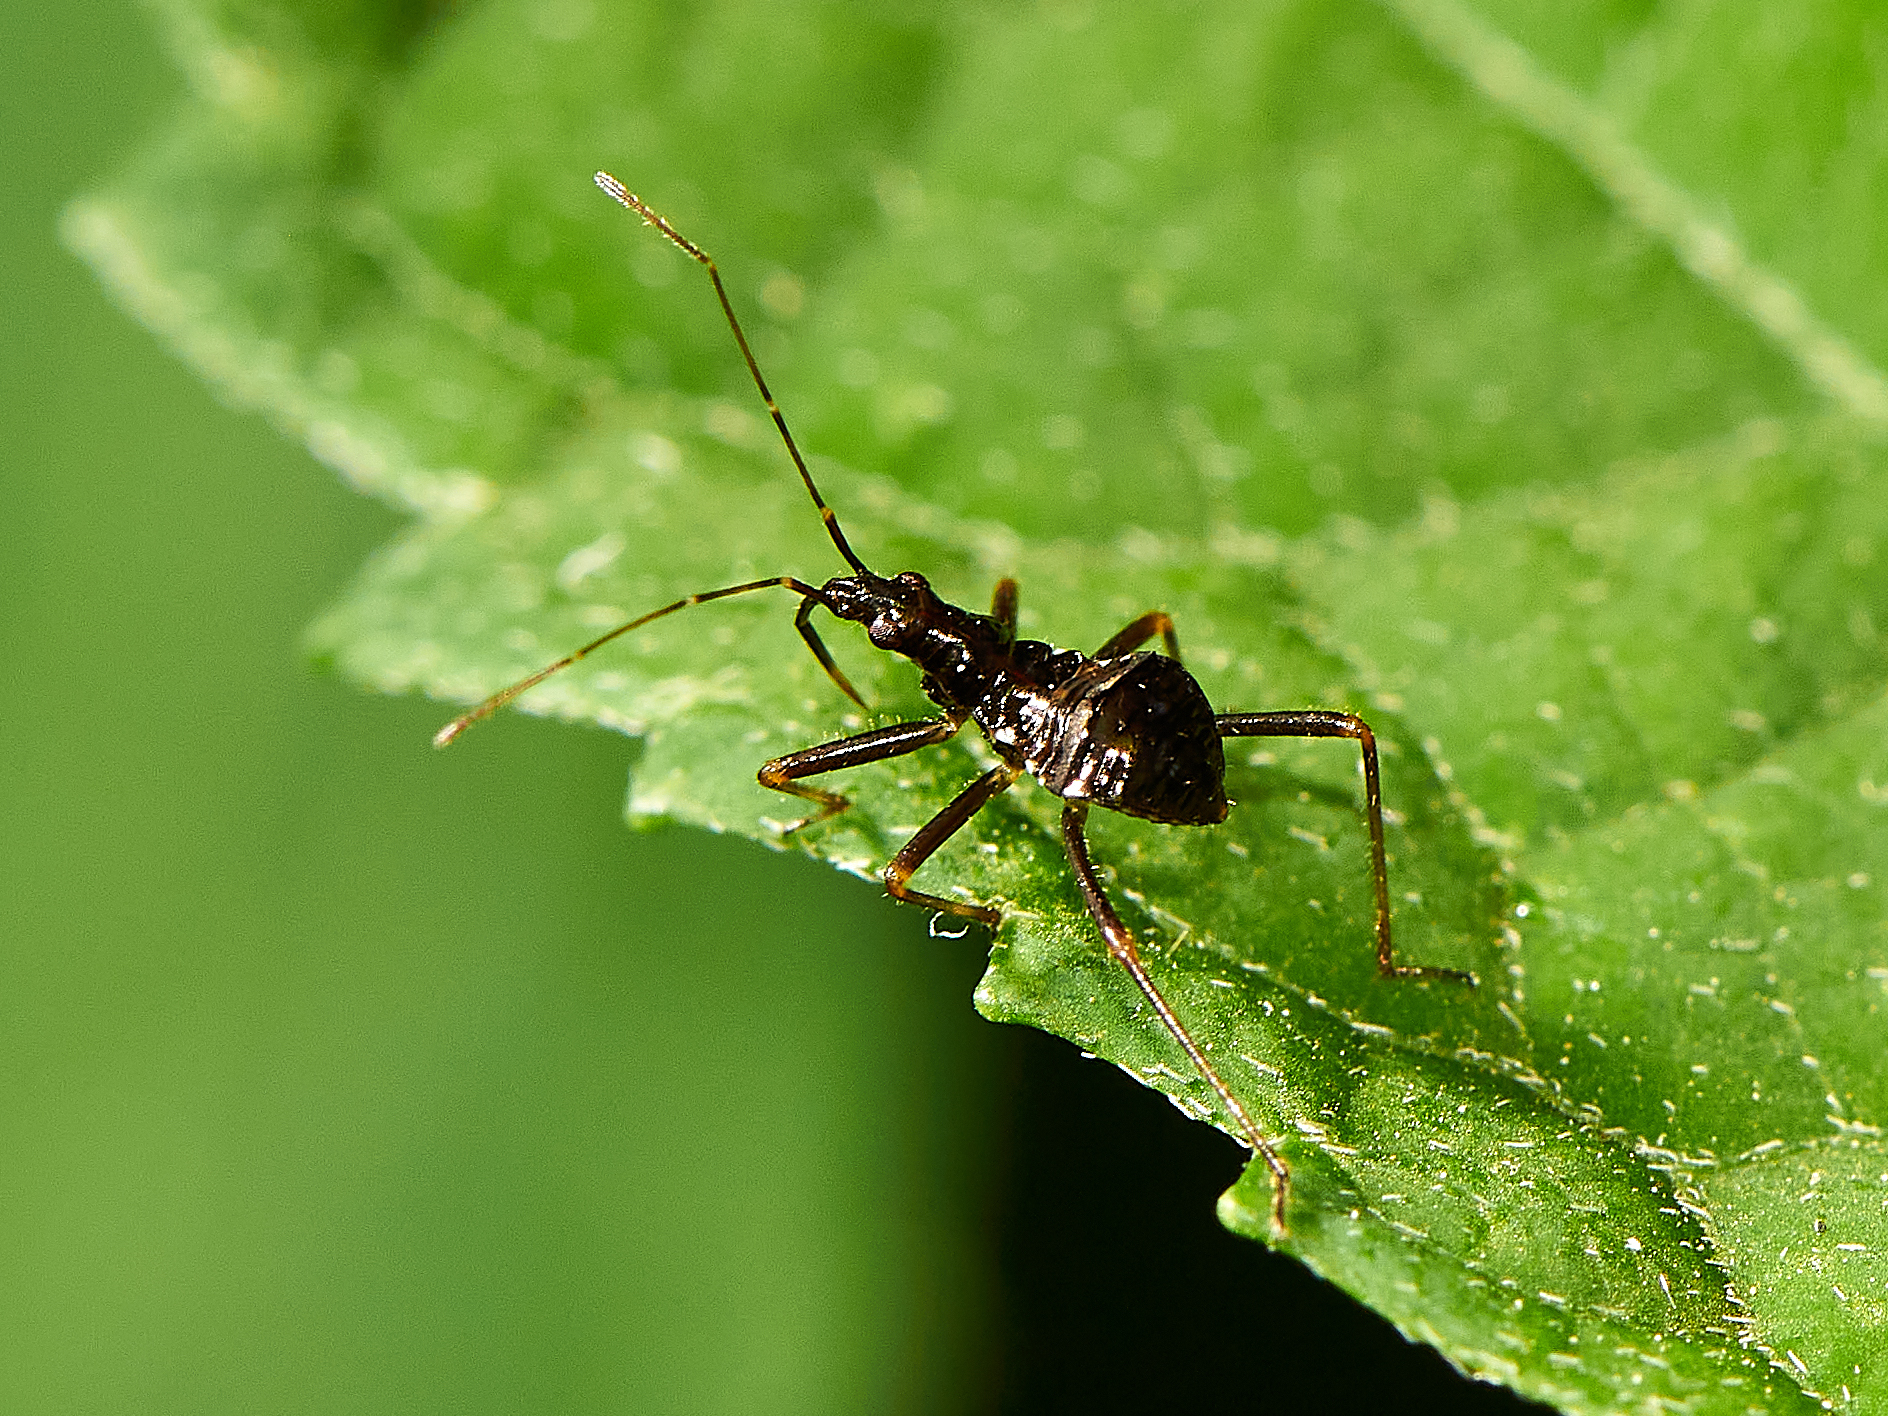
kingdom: Animalia
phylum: Arthropoda
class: Insecta
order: Hemiptera
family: Nabidae
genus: Himacerus
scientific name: Himacerus apterus
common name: Tree damsel bug
